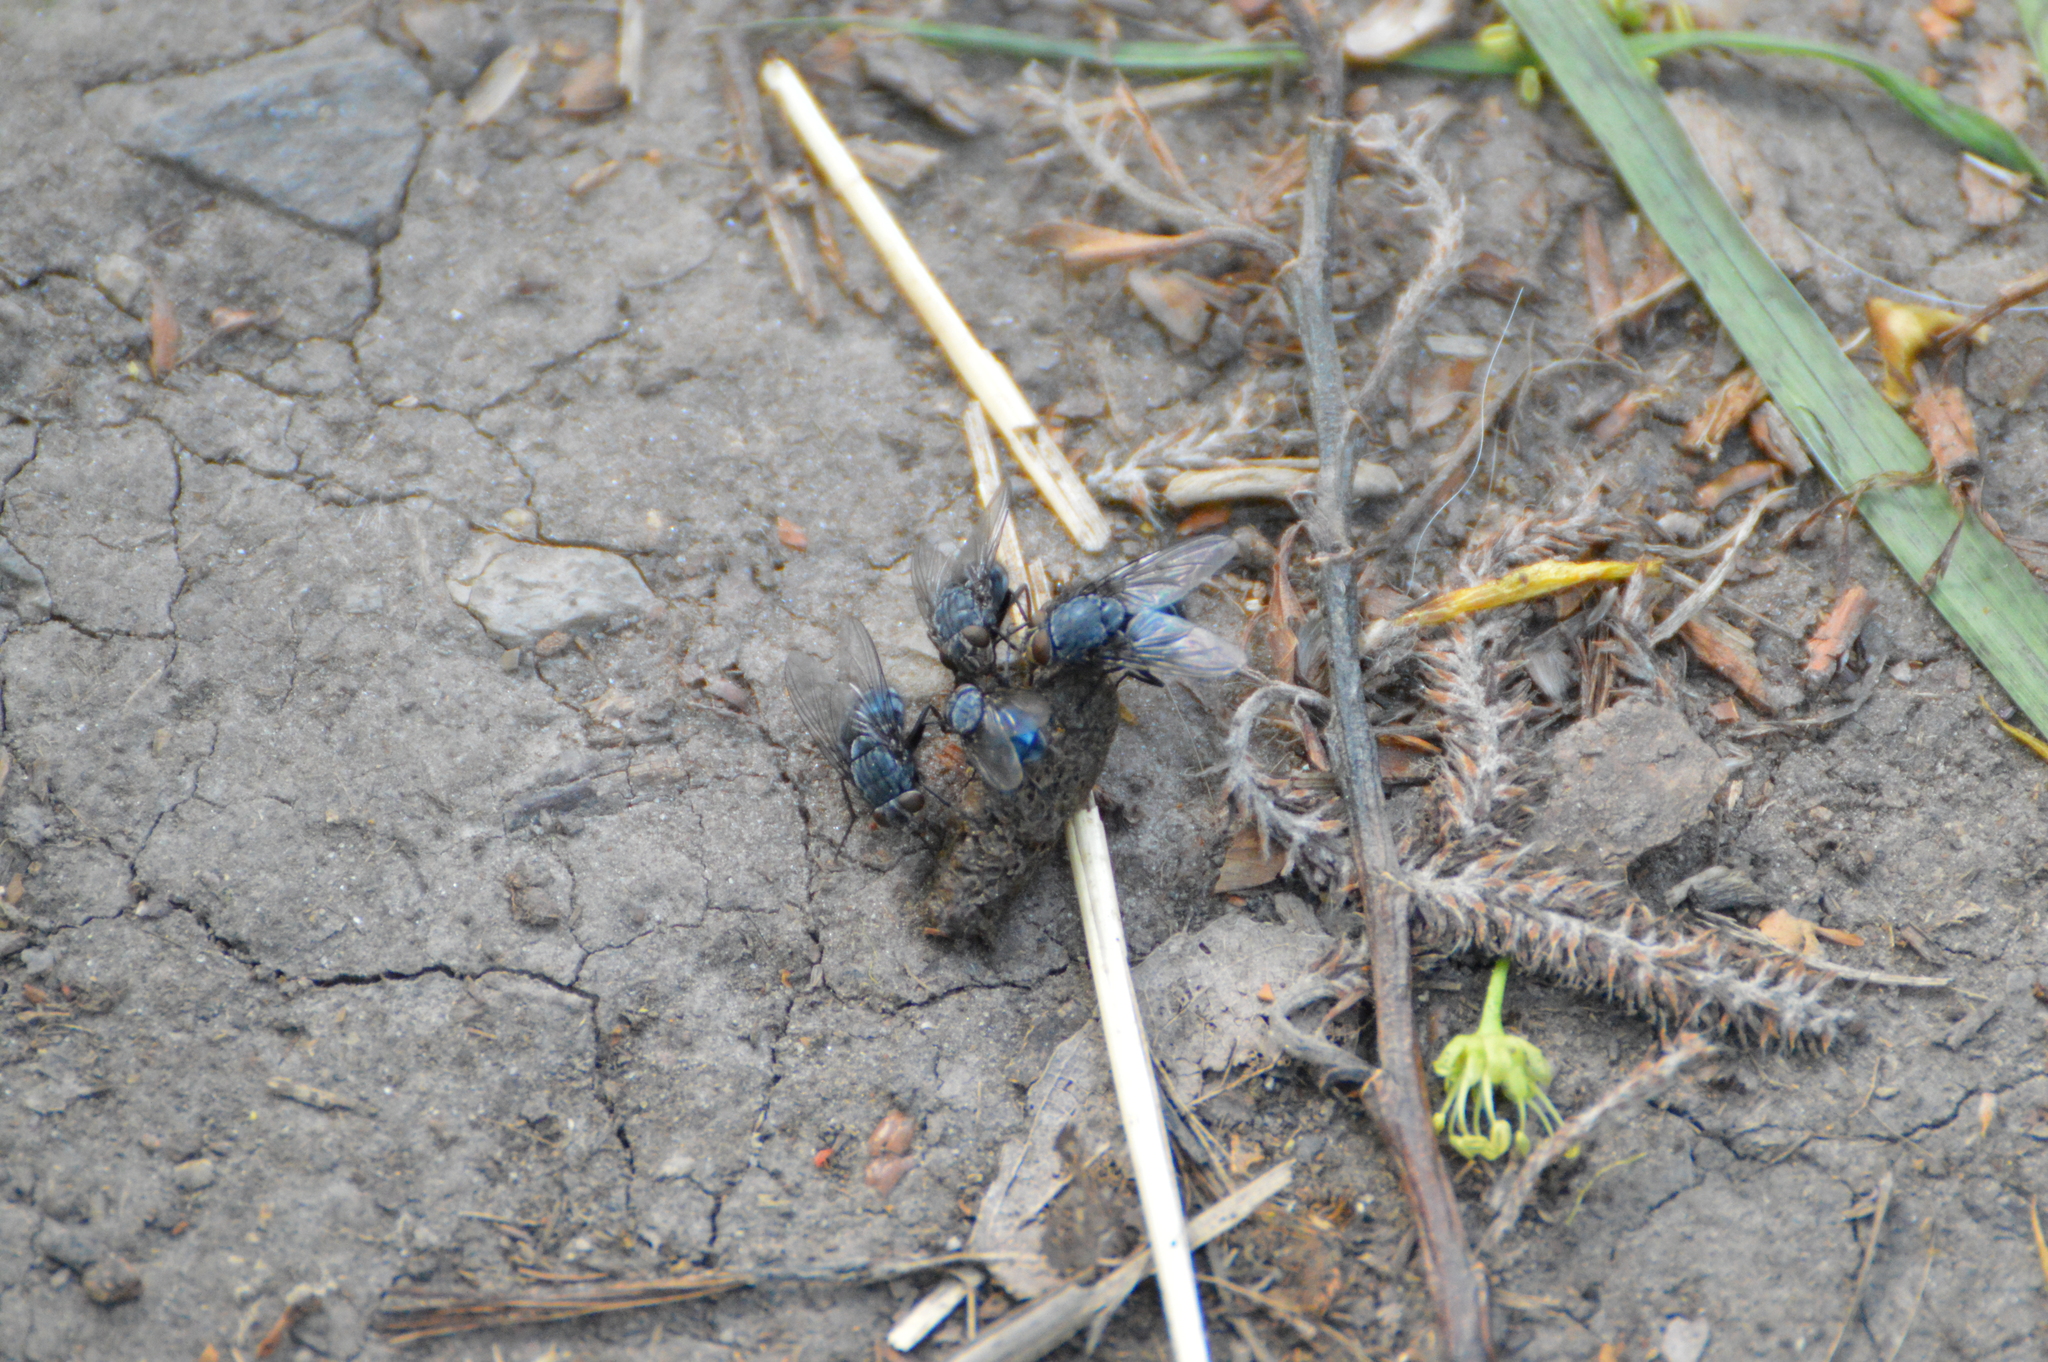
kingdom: Animalia
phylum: Arthropoda
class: Insecta
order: Diptera
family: Calliphoridae
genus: Calliphora
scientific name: Calliphora
